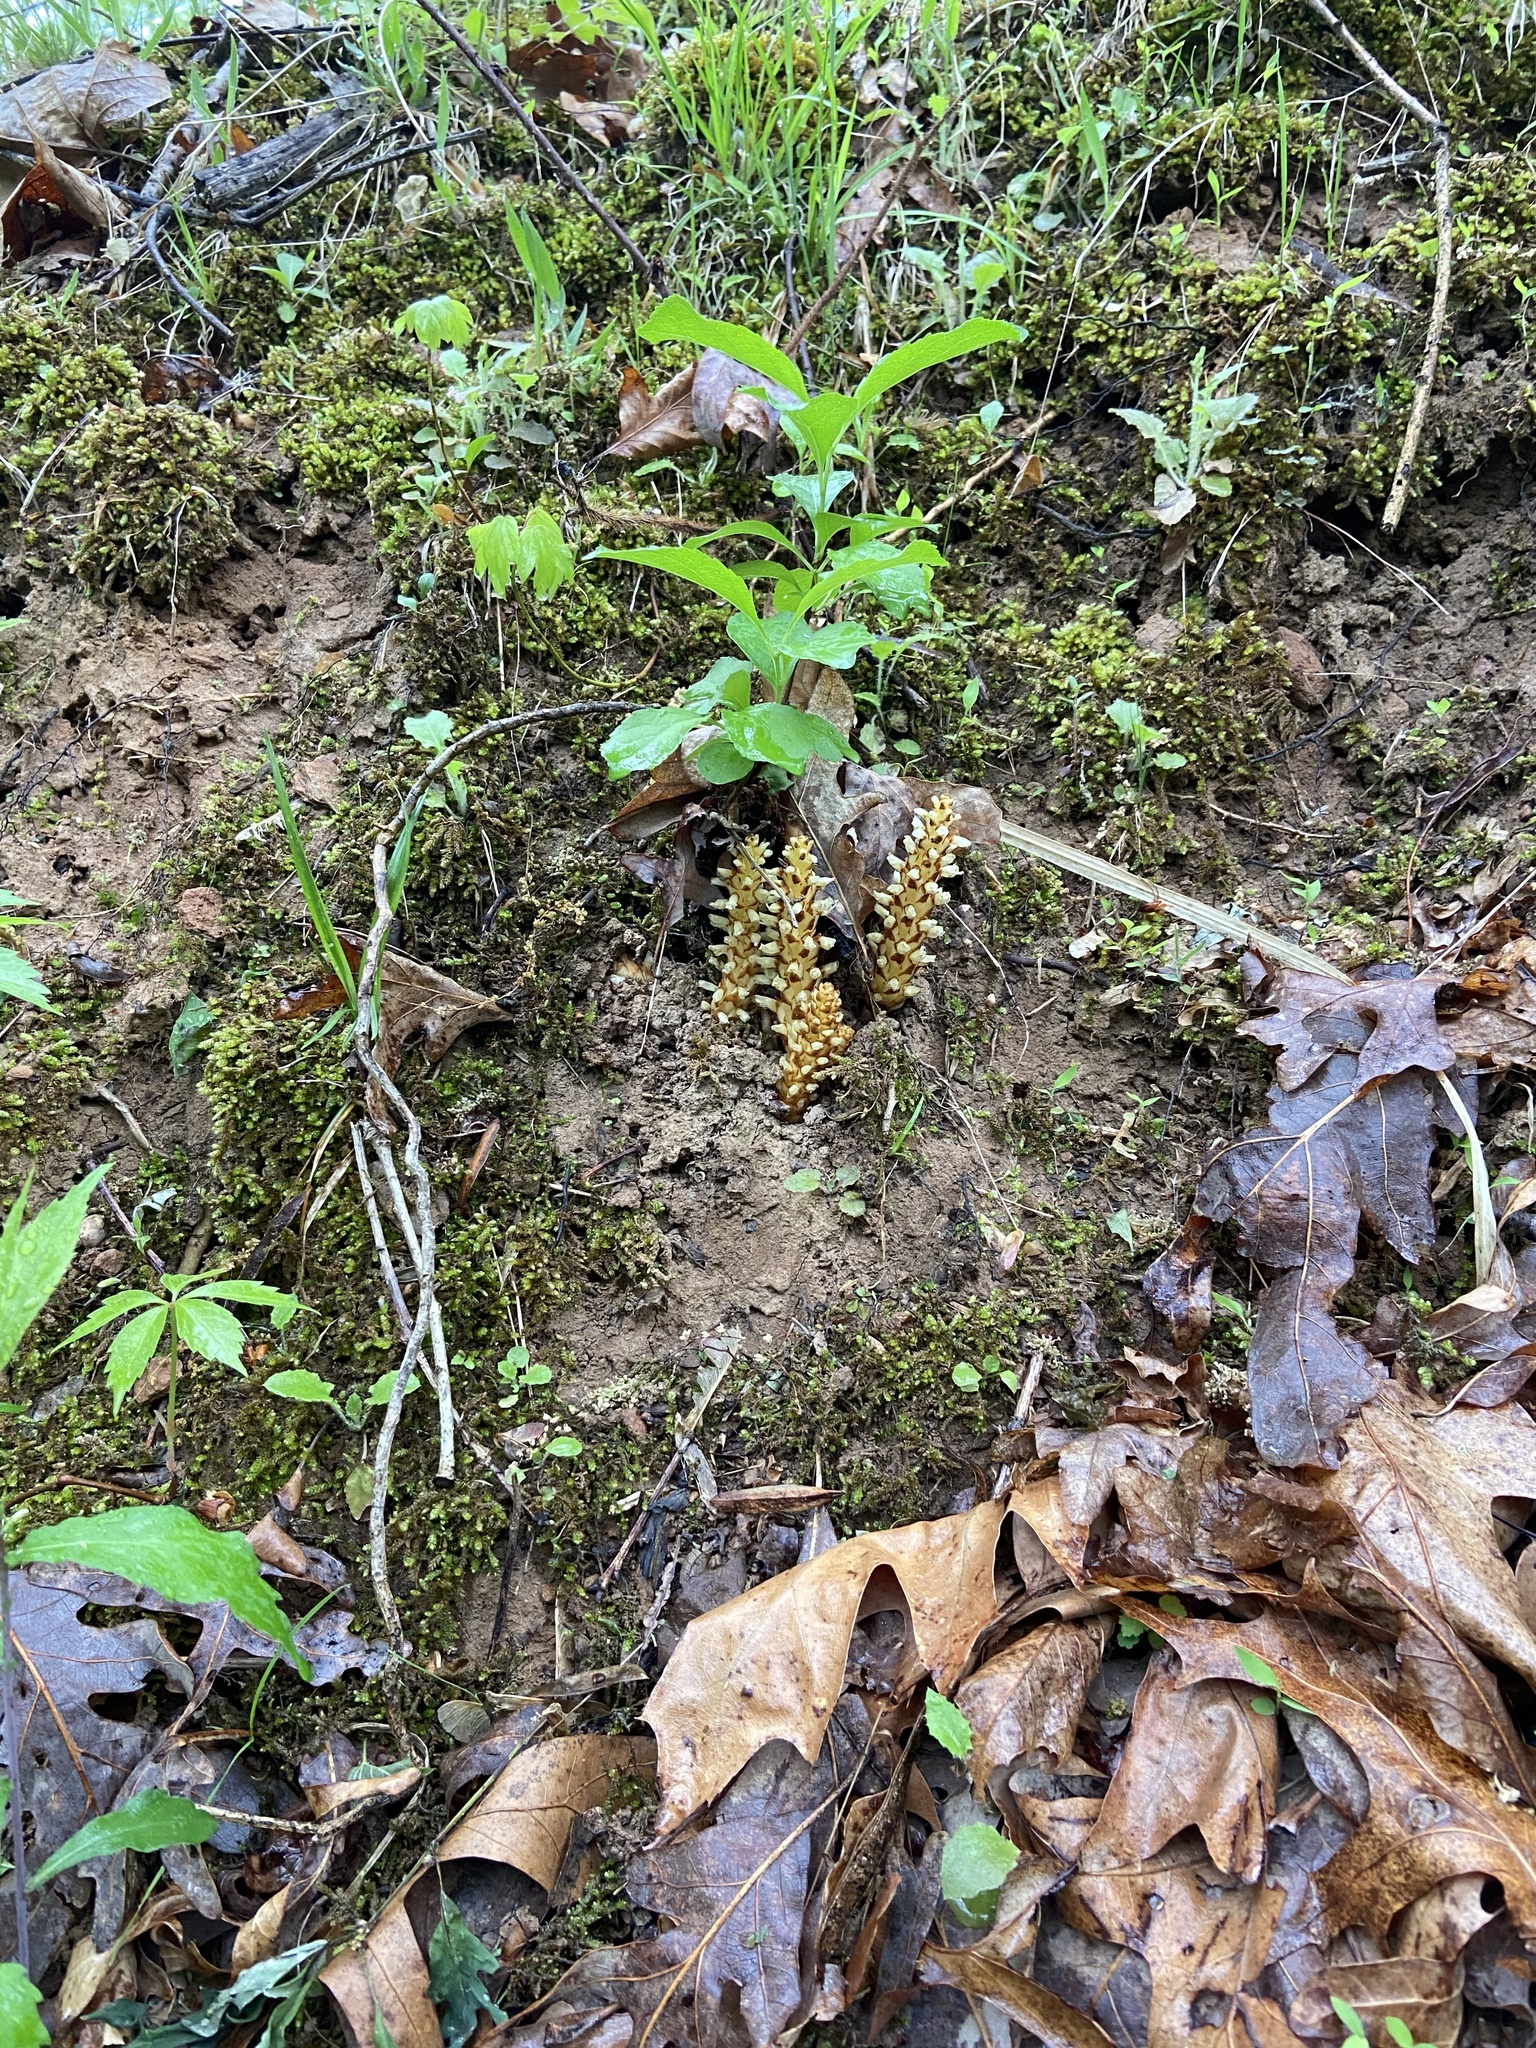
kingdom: Plantae
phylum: Tracheophyta
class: Magnoliopsida
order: Lamiales
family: Orobanchaceae
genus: Conopholis
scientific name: Conopholis americana
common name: American cancer-root
